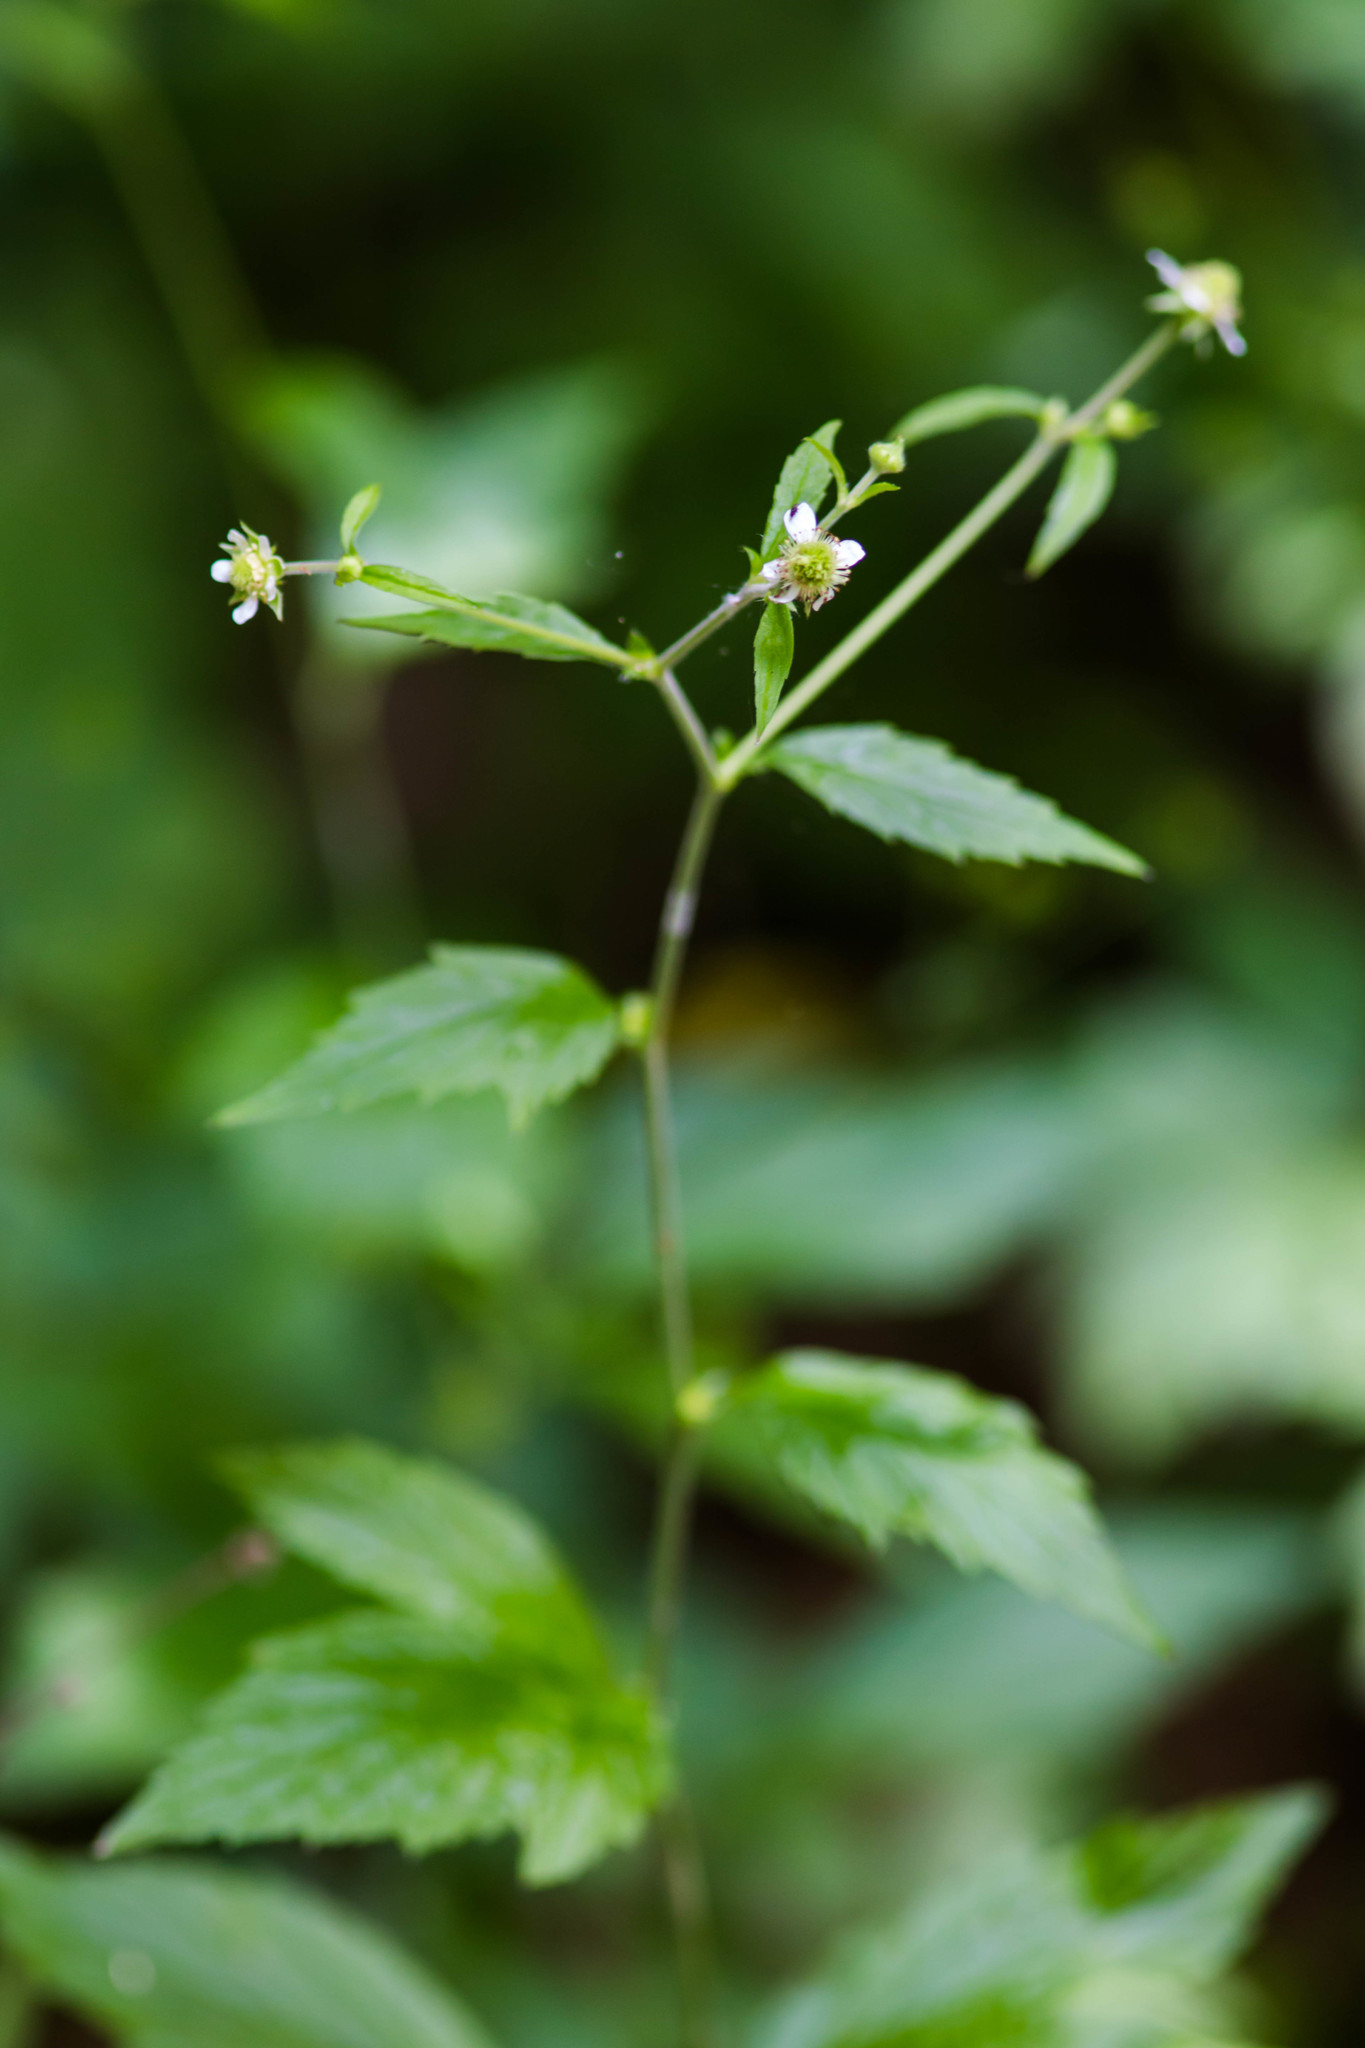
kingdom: Plantae
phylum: Tracheophyta
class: Magnoliopsida
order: Rosales
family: Rosaceae
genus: Geum
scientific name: Geum canadense
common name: White avens
